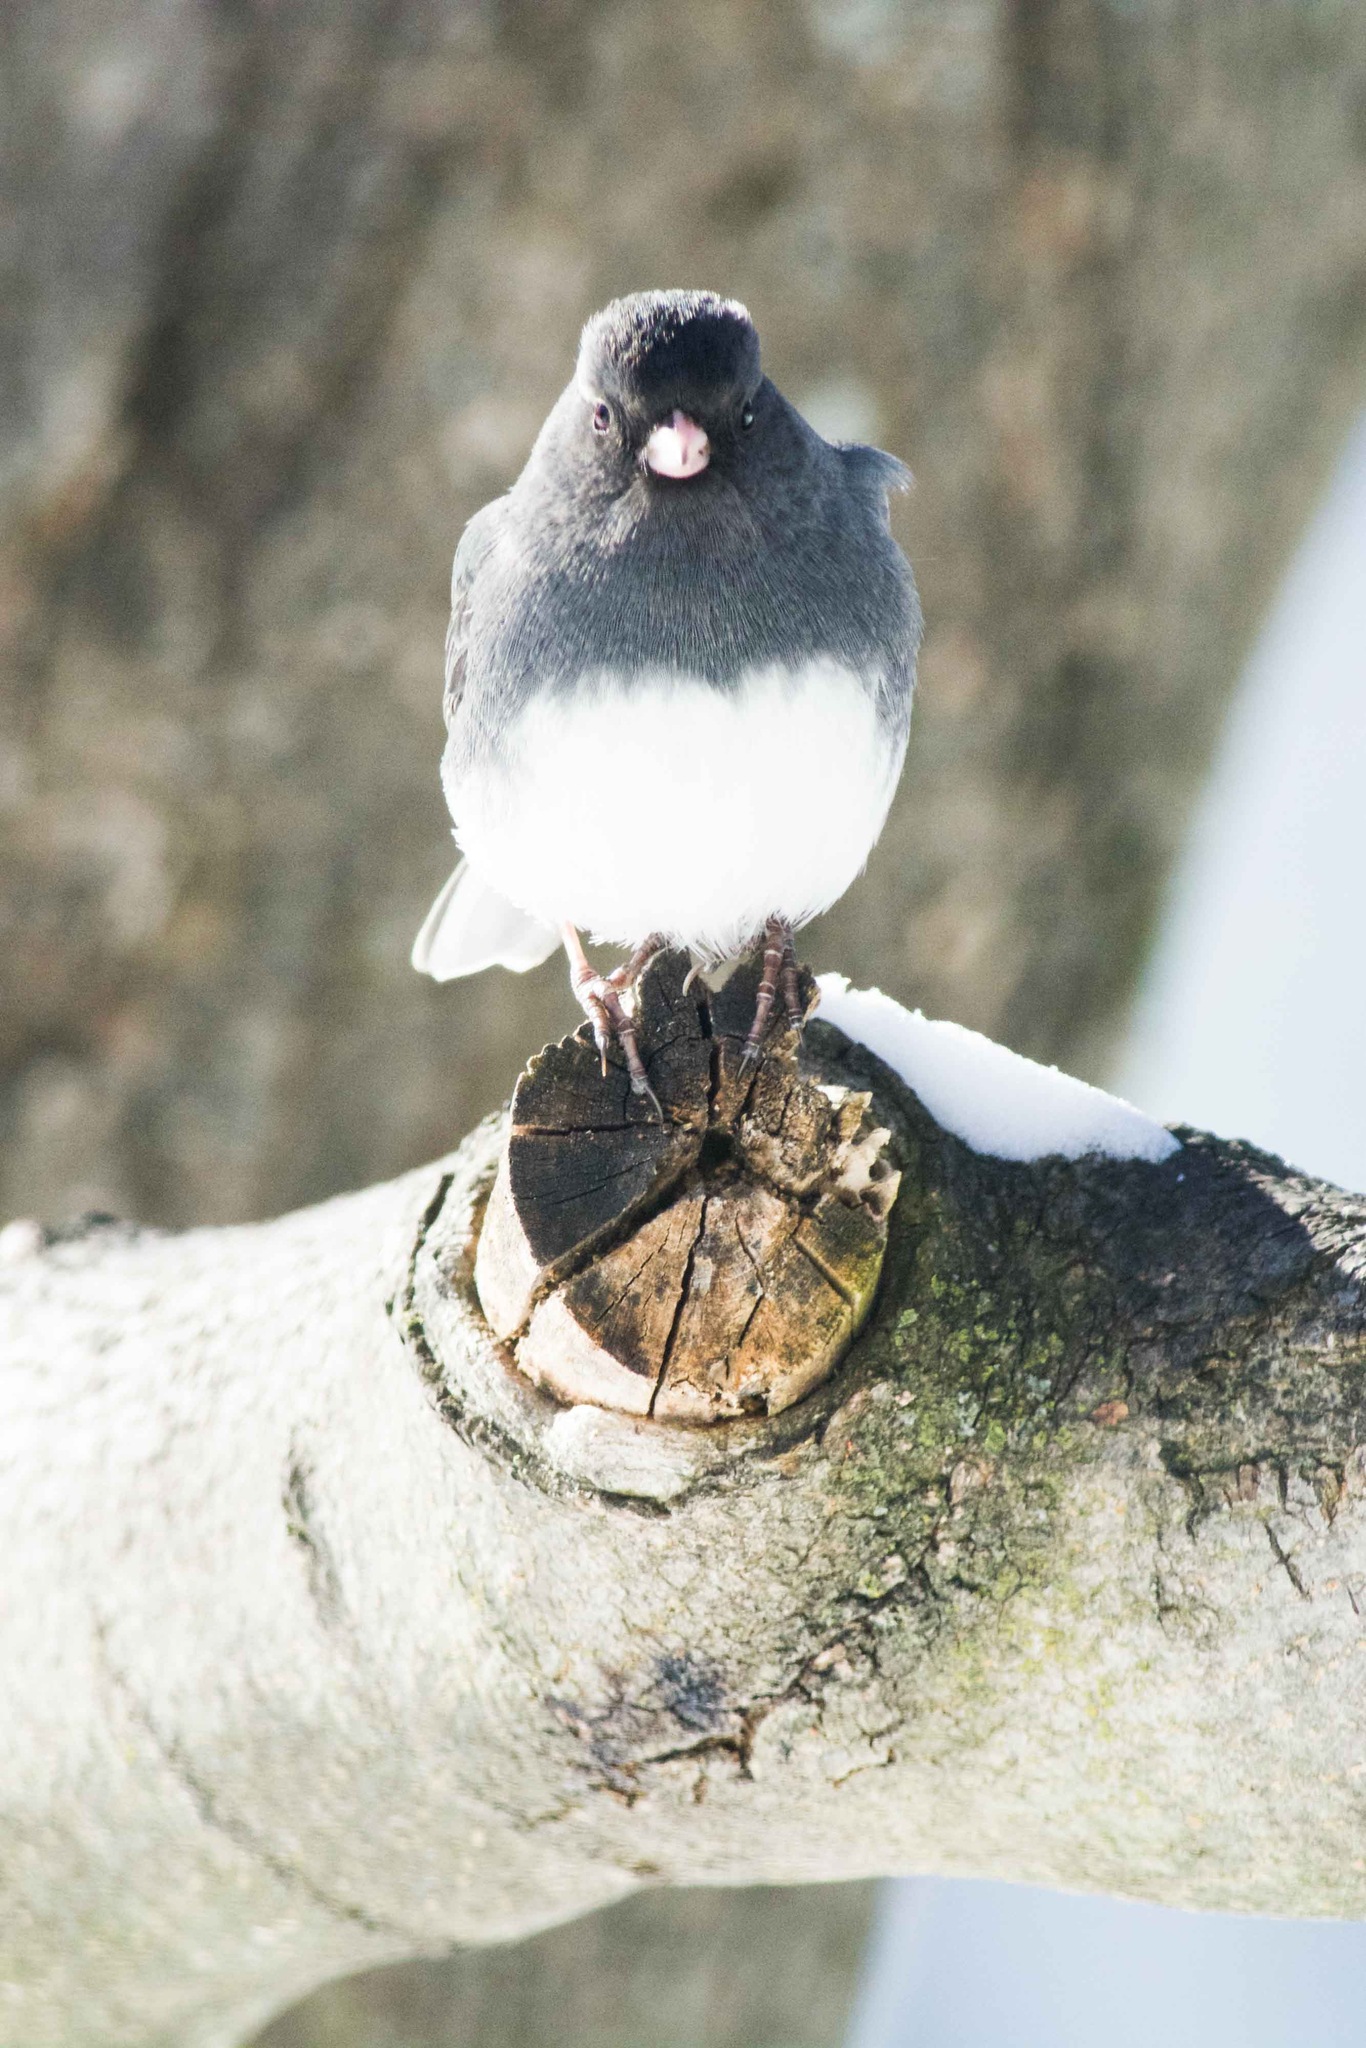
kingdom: Animalia
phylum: Chordata
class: Aves
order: Passeriformes
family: Passerellidae
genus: Junco
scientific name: Junco hyemalis
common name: Dark-eyed junco
